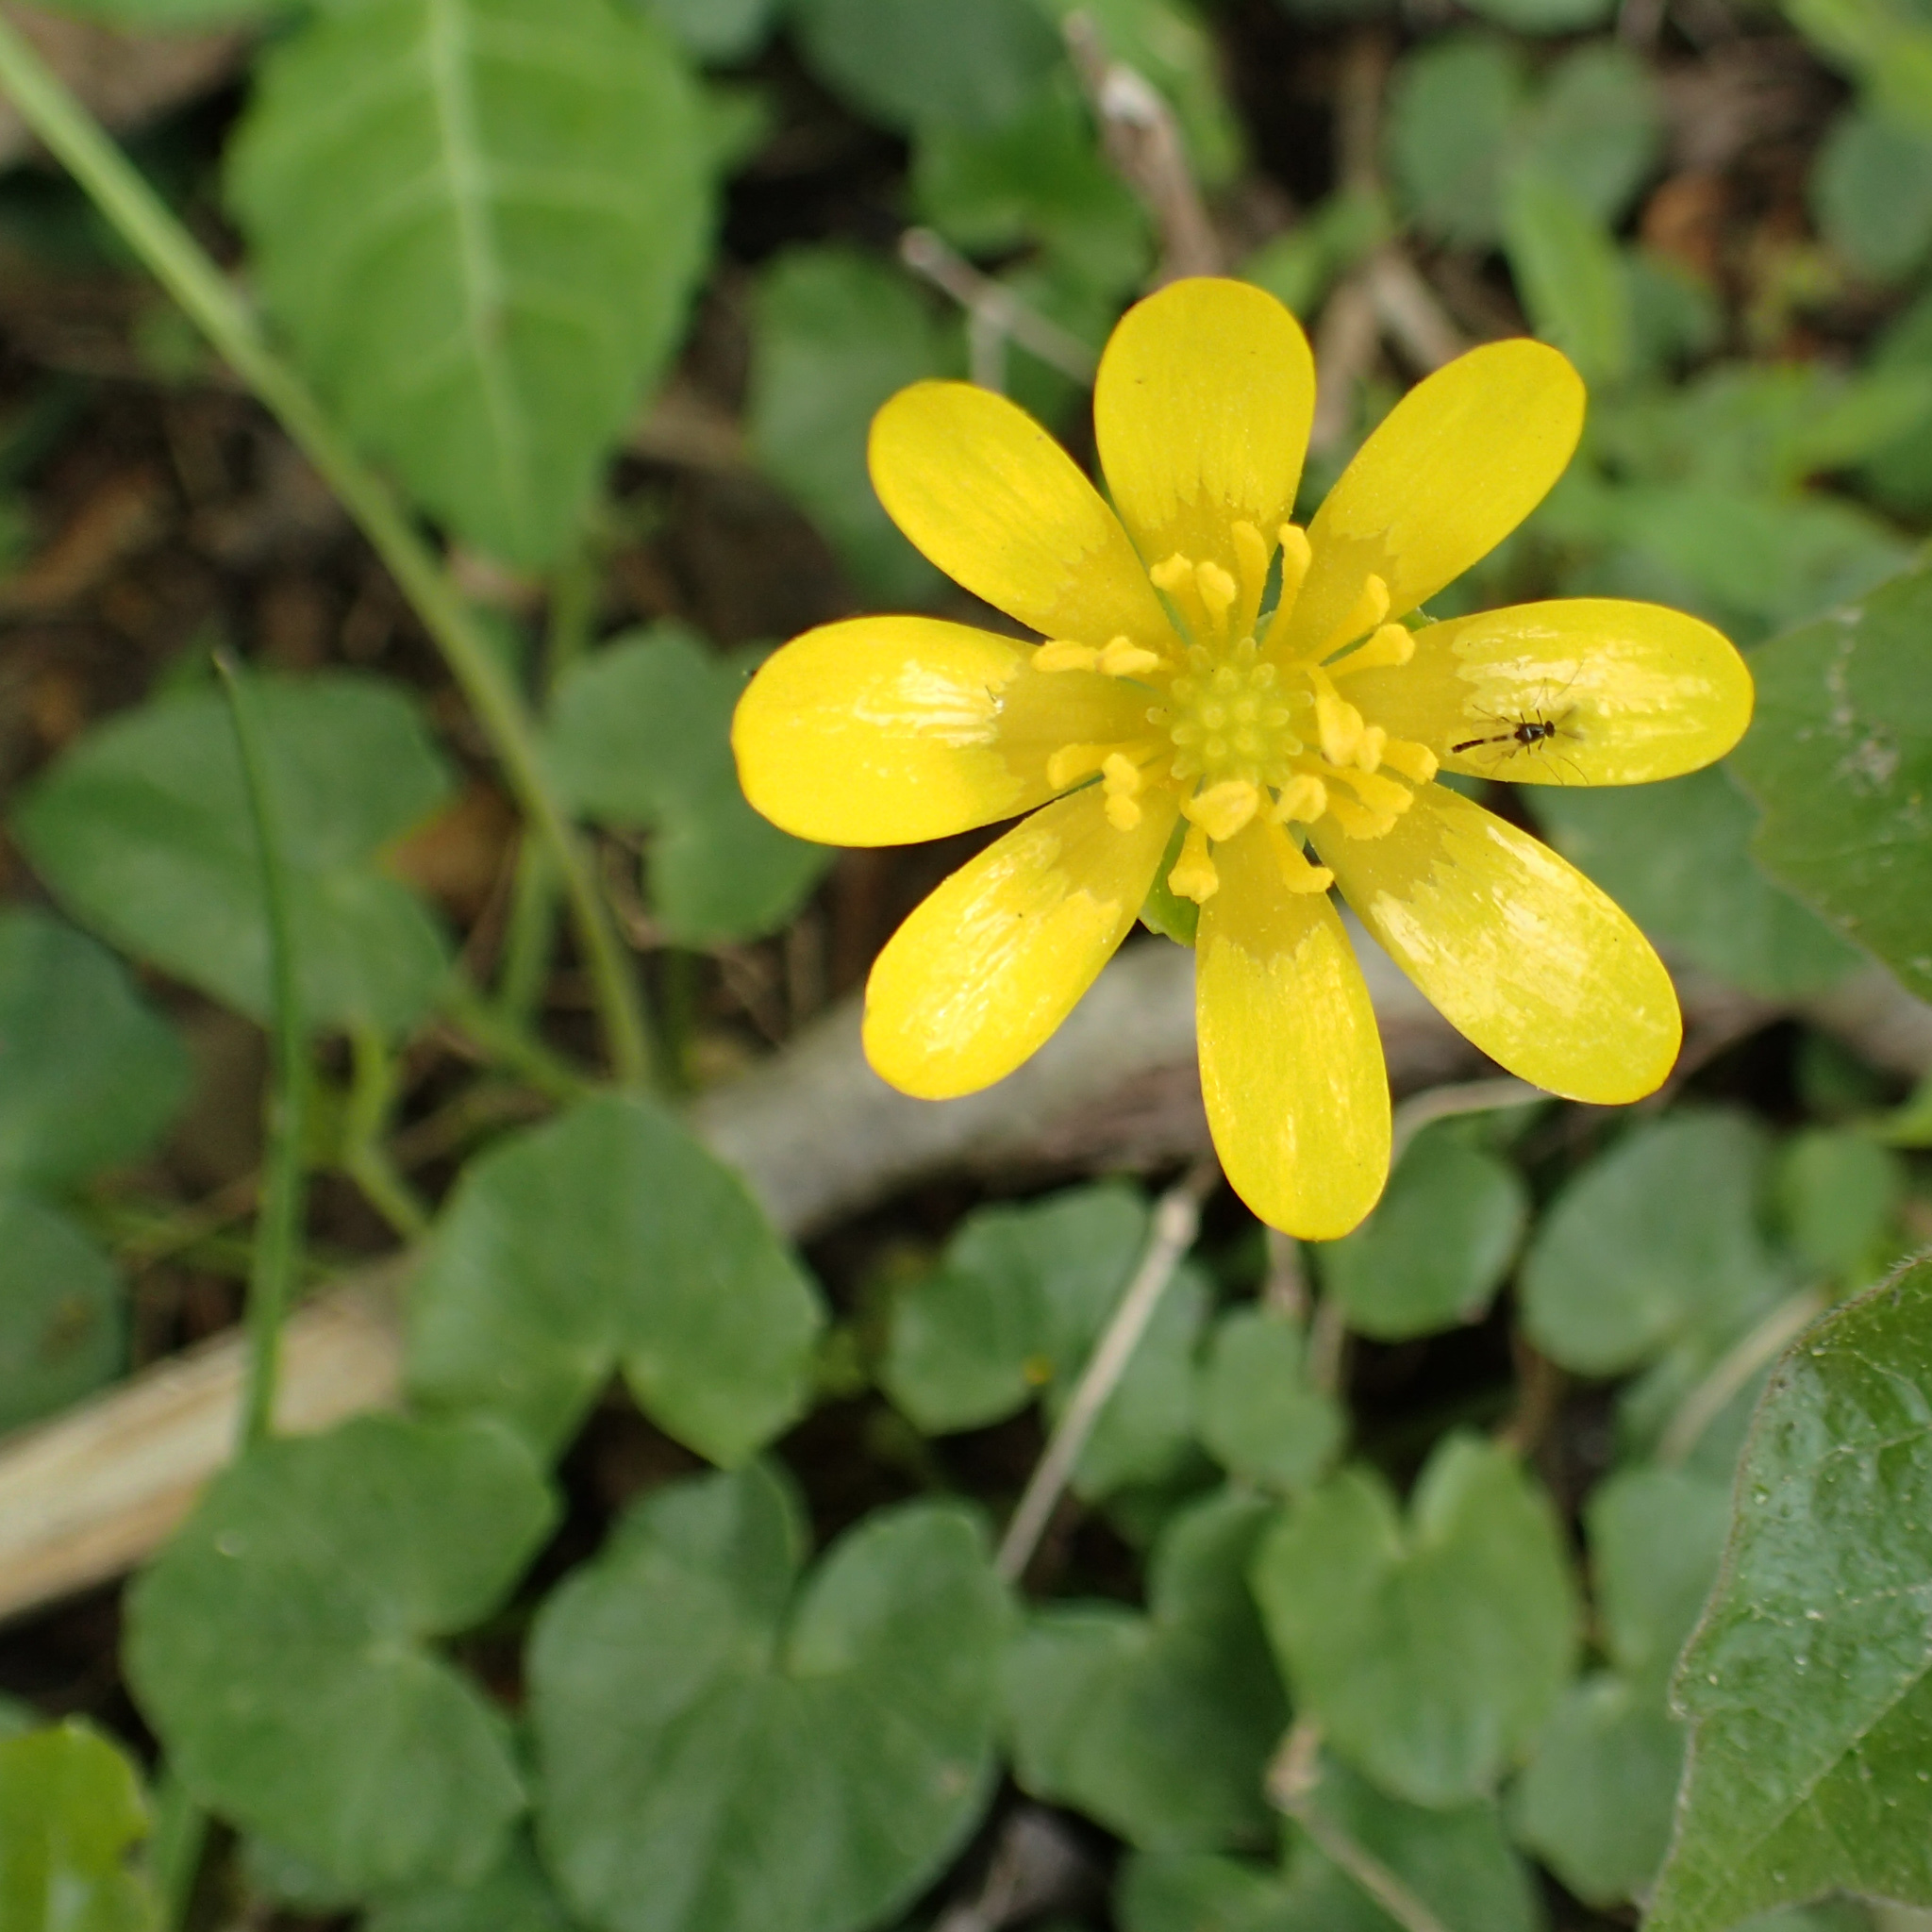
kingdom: Plantae
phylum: Tracheophyta
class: Magnoliopsida
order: Ranunculales
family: Ranunculaceae
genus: Ficaria
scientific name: Ficaria verna
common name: Lesser celandine
